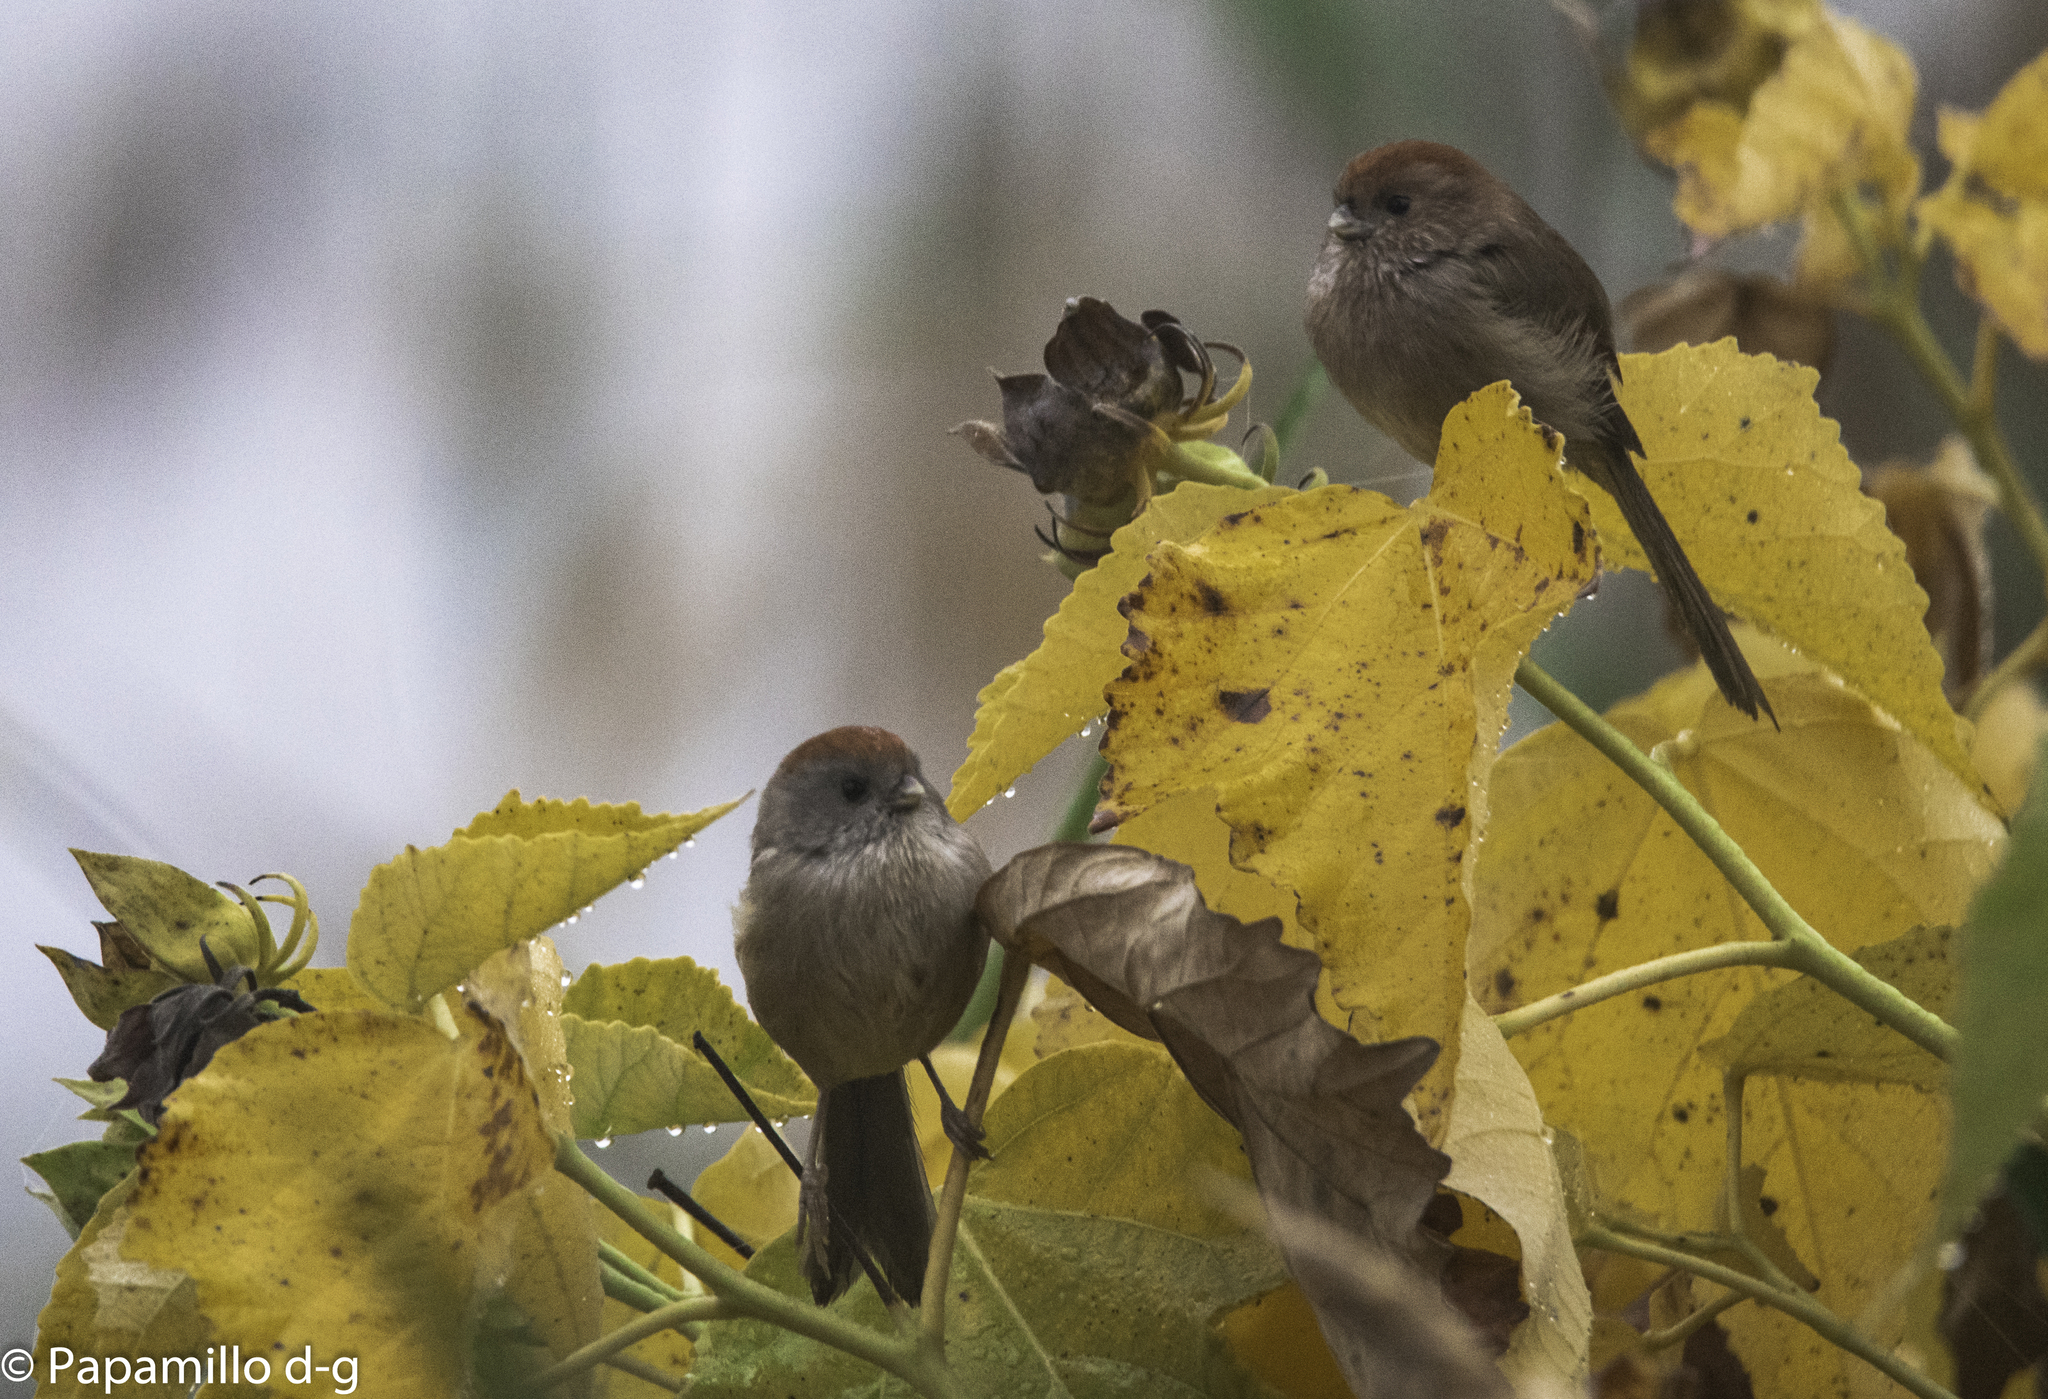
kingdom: Animalia
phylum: Chordata
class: Aves
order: Passeriformes
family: Sylviidae
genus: Sinosuthora
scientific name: Sinosuthora webbiana
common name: Vinous-throated parrotbill
